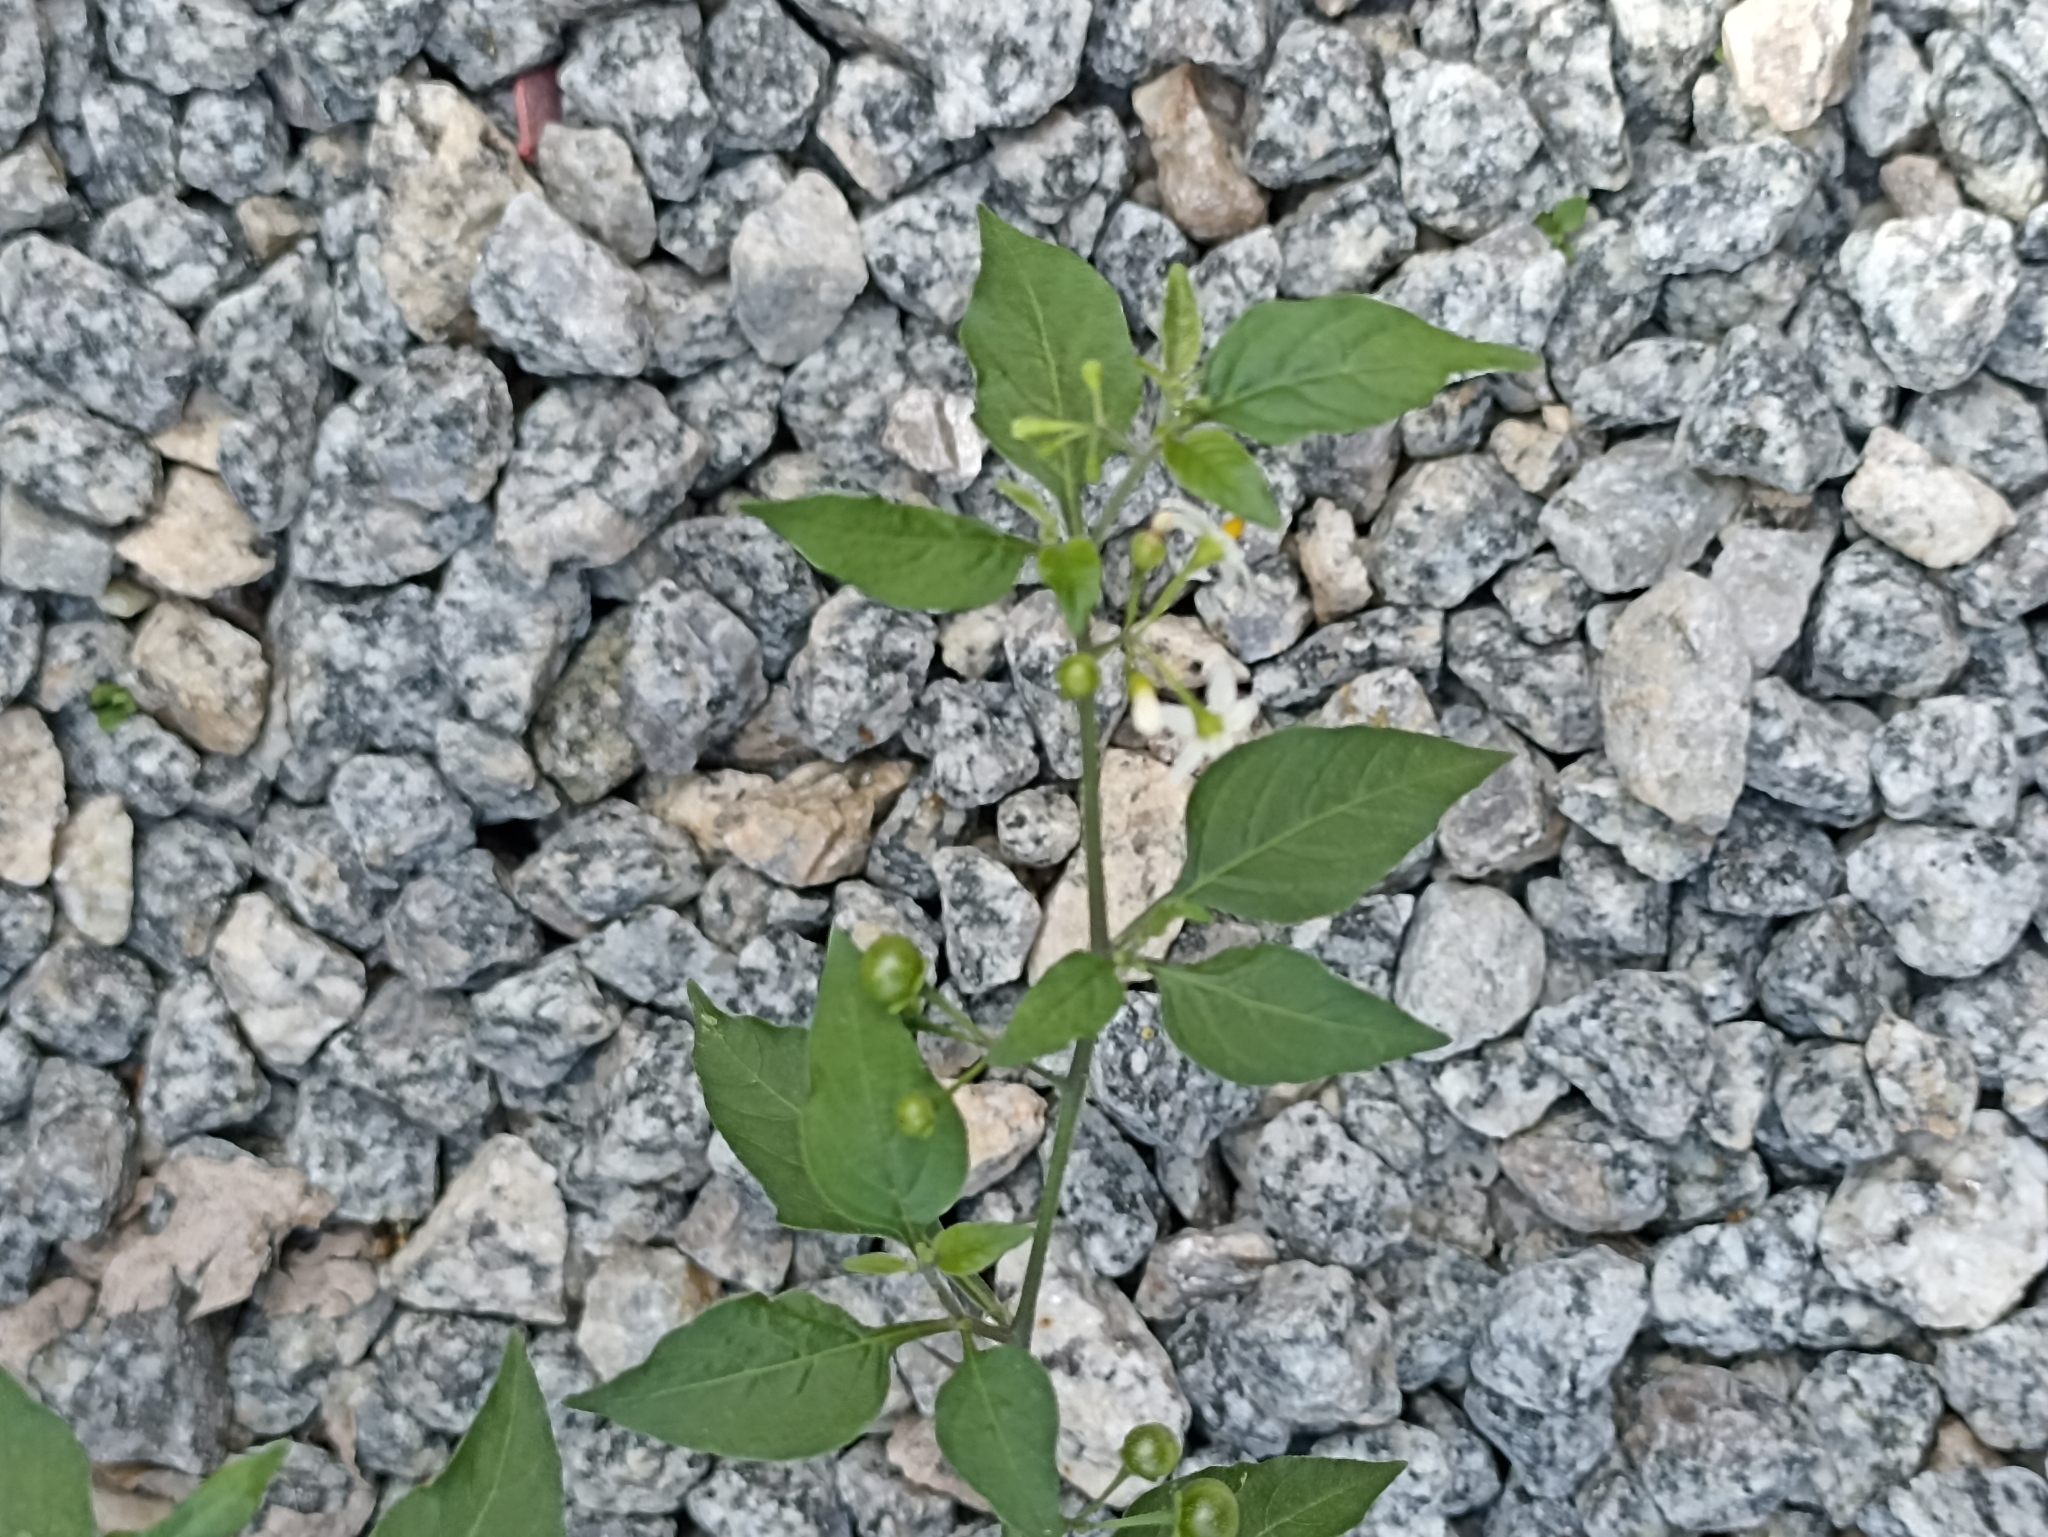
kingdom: Plantae
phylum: Tracheophyta
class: Magnoliopsida
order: Solanales
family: Solanaceae
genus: Solanum
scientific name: Solanum americanum
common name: American black nightshade
